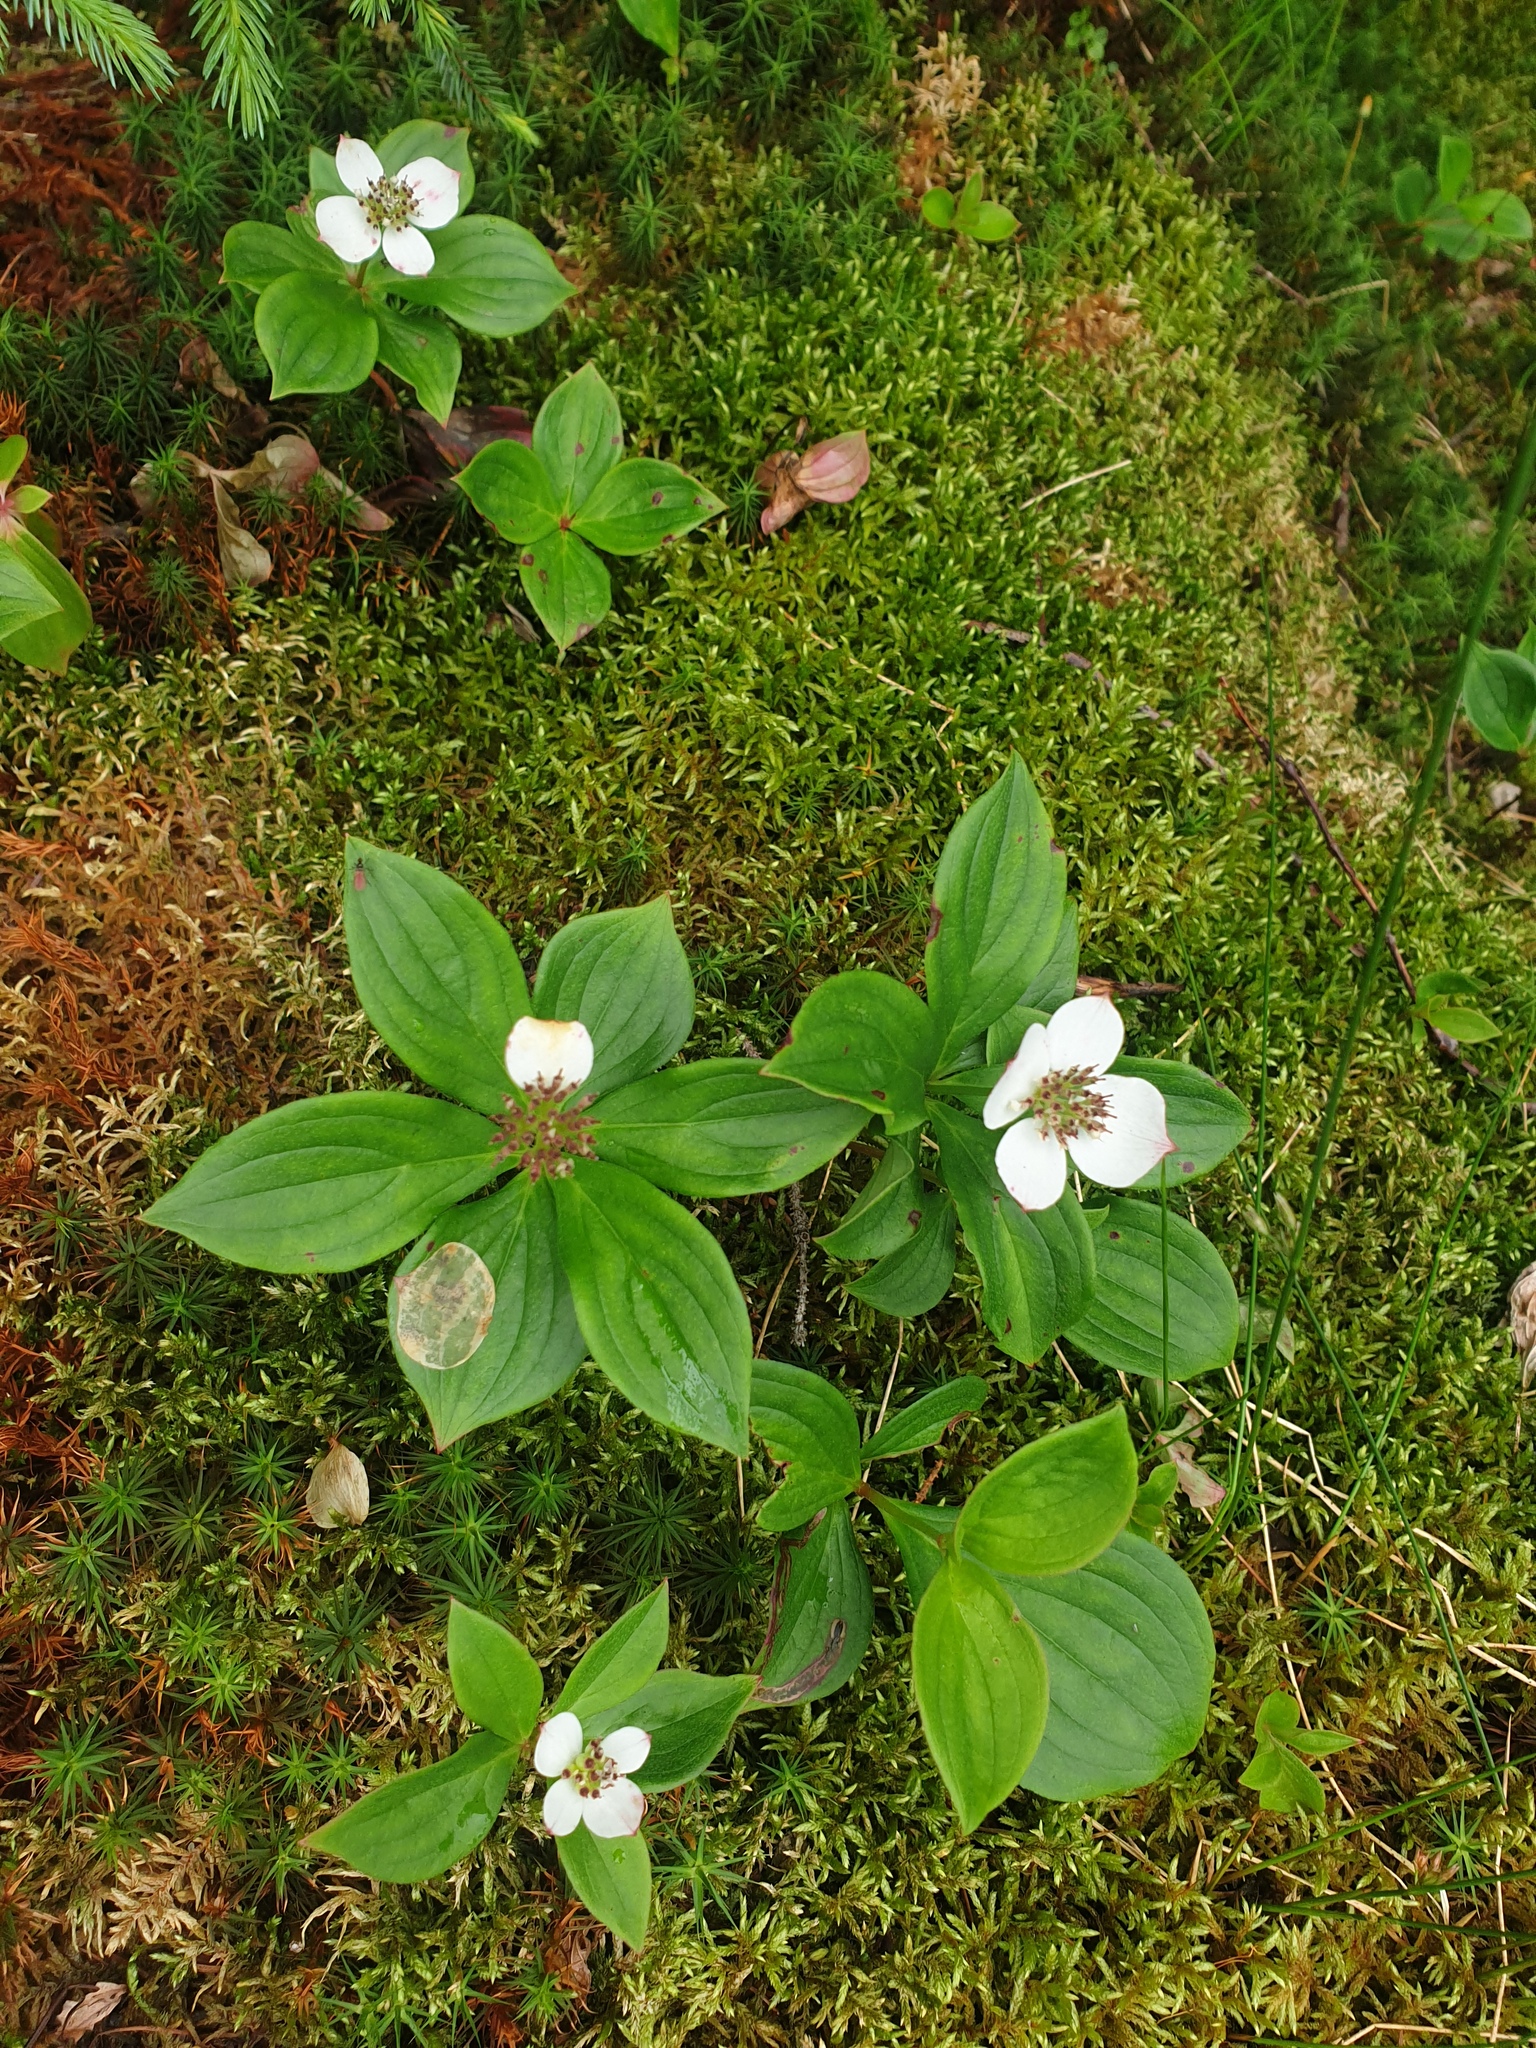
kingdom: Plantae
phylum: Tracheophyta
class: Magnoliopsida
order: Cornales
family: Cornaceae
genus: Cornus
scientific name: Cornus canadensis
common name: Creeping dogwood
